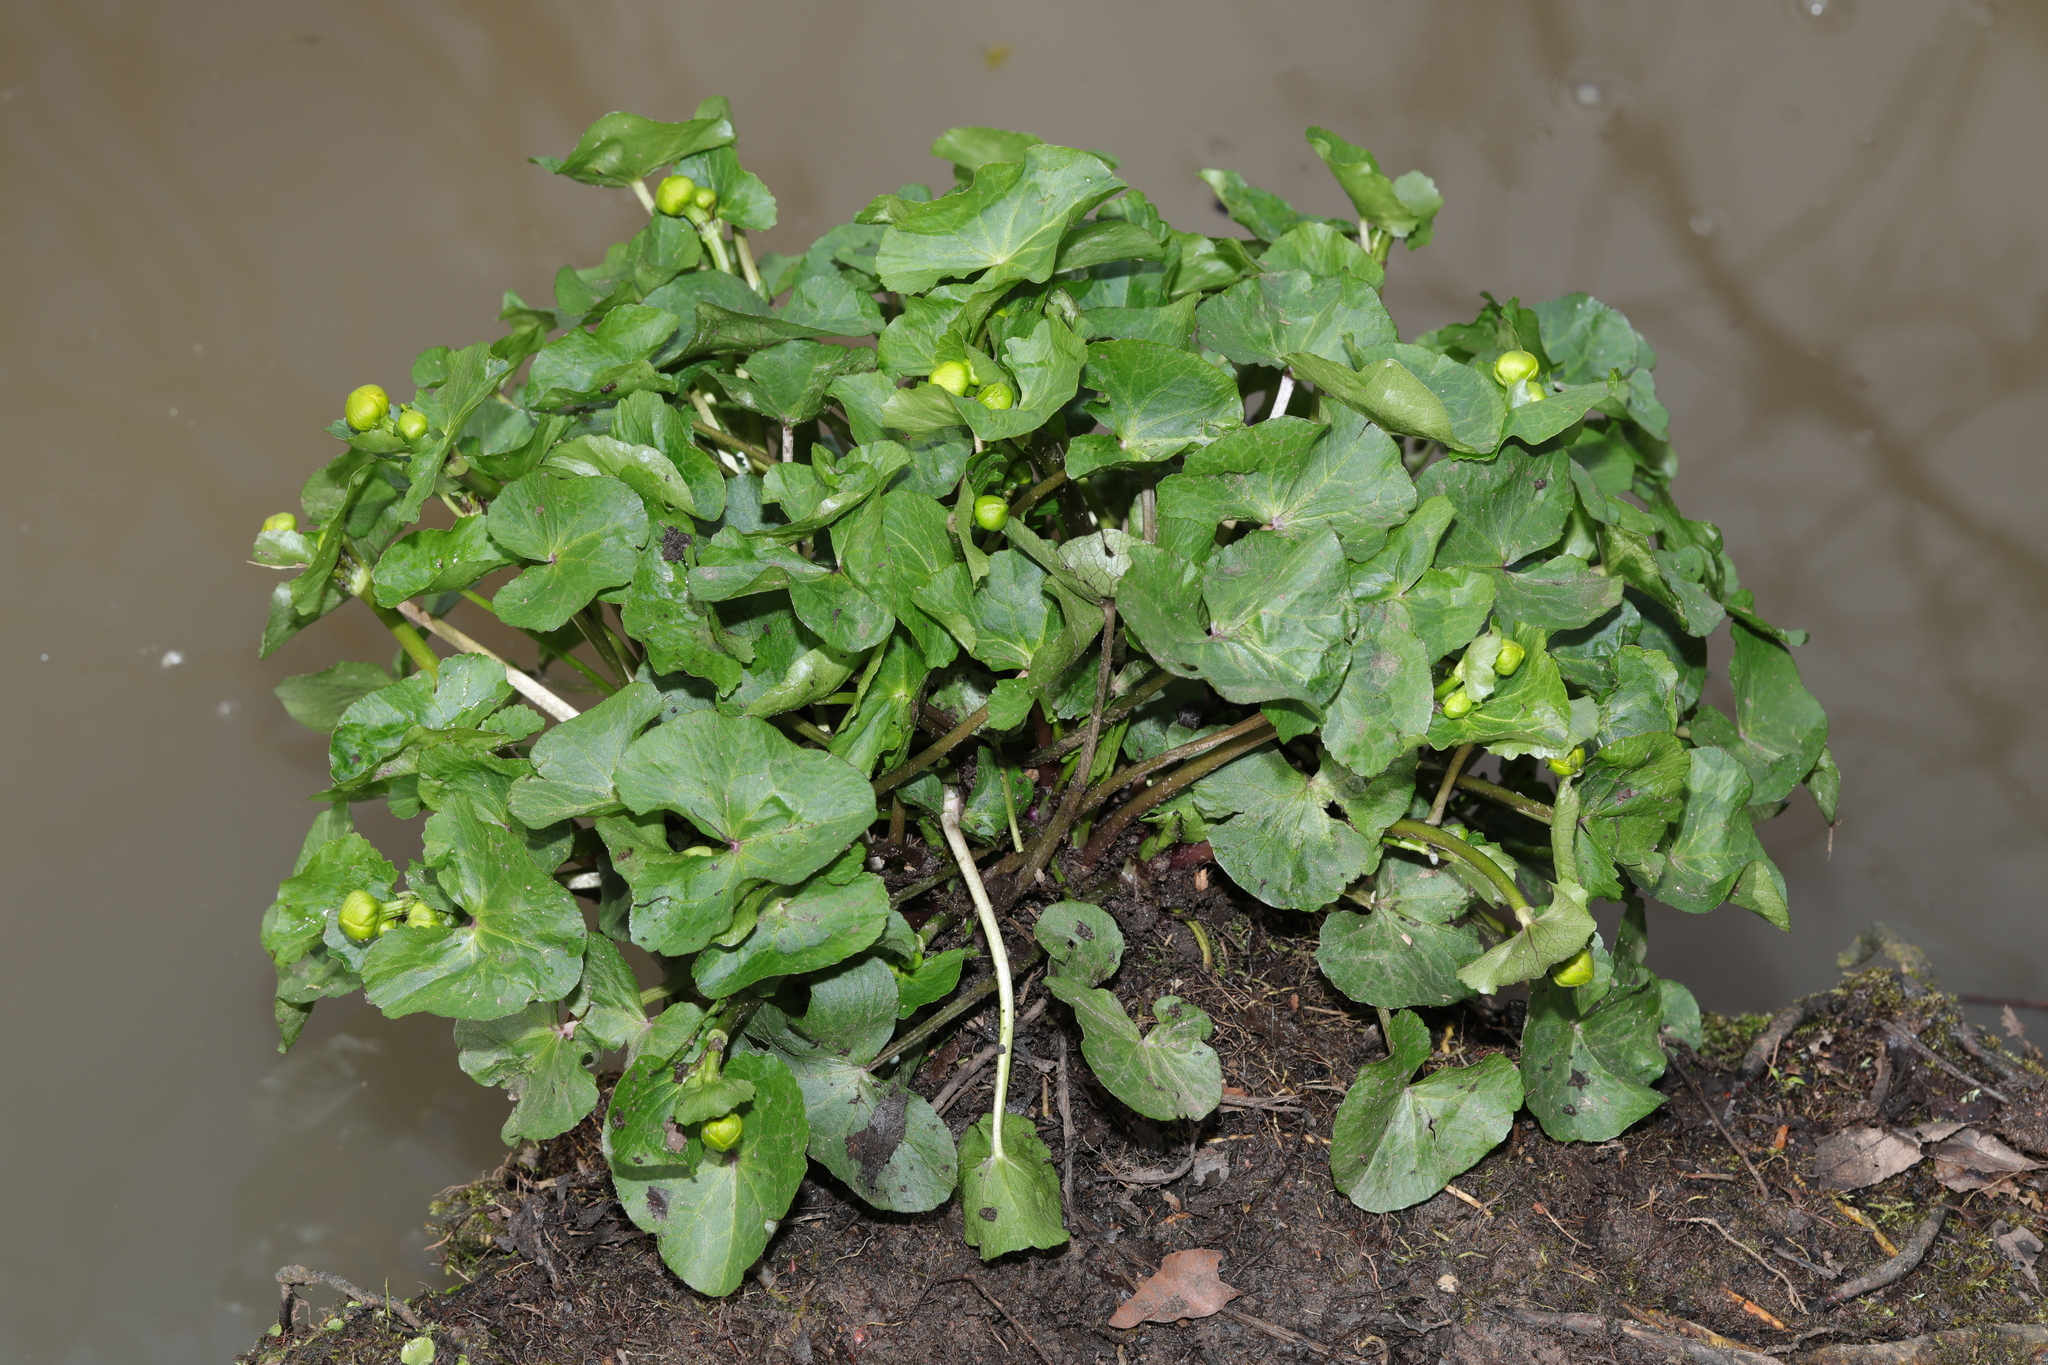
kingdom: Plantae
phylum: Tracheophyta
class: Magnoliopsida
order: Ranunculales
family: Ranunculaceae
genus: Caltha
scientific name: Caltha palustris
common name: Marsh marigold
